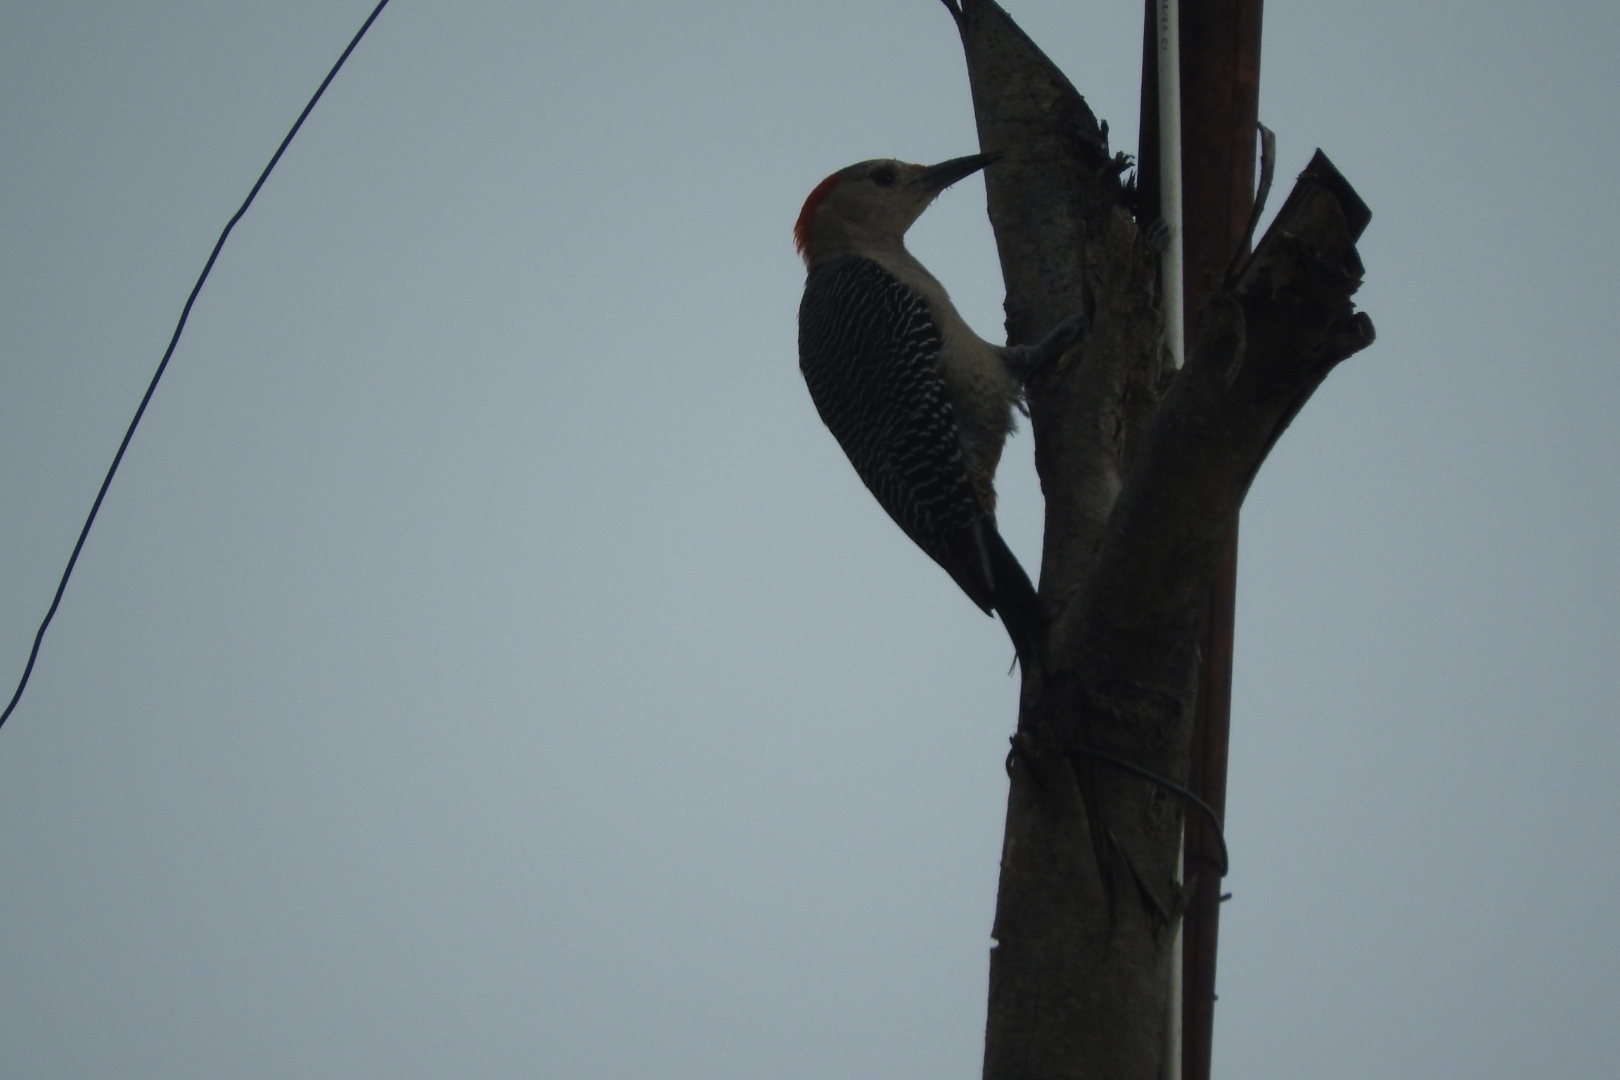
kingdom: Animalia
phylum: Chordata
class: Aves
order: Piciformes
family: Picidae
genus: Melanerpes
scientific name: Melanerpes aurifrons
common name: Golden-fronted woodpecker
